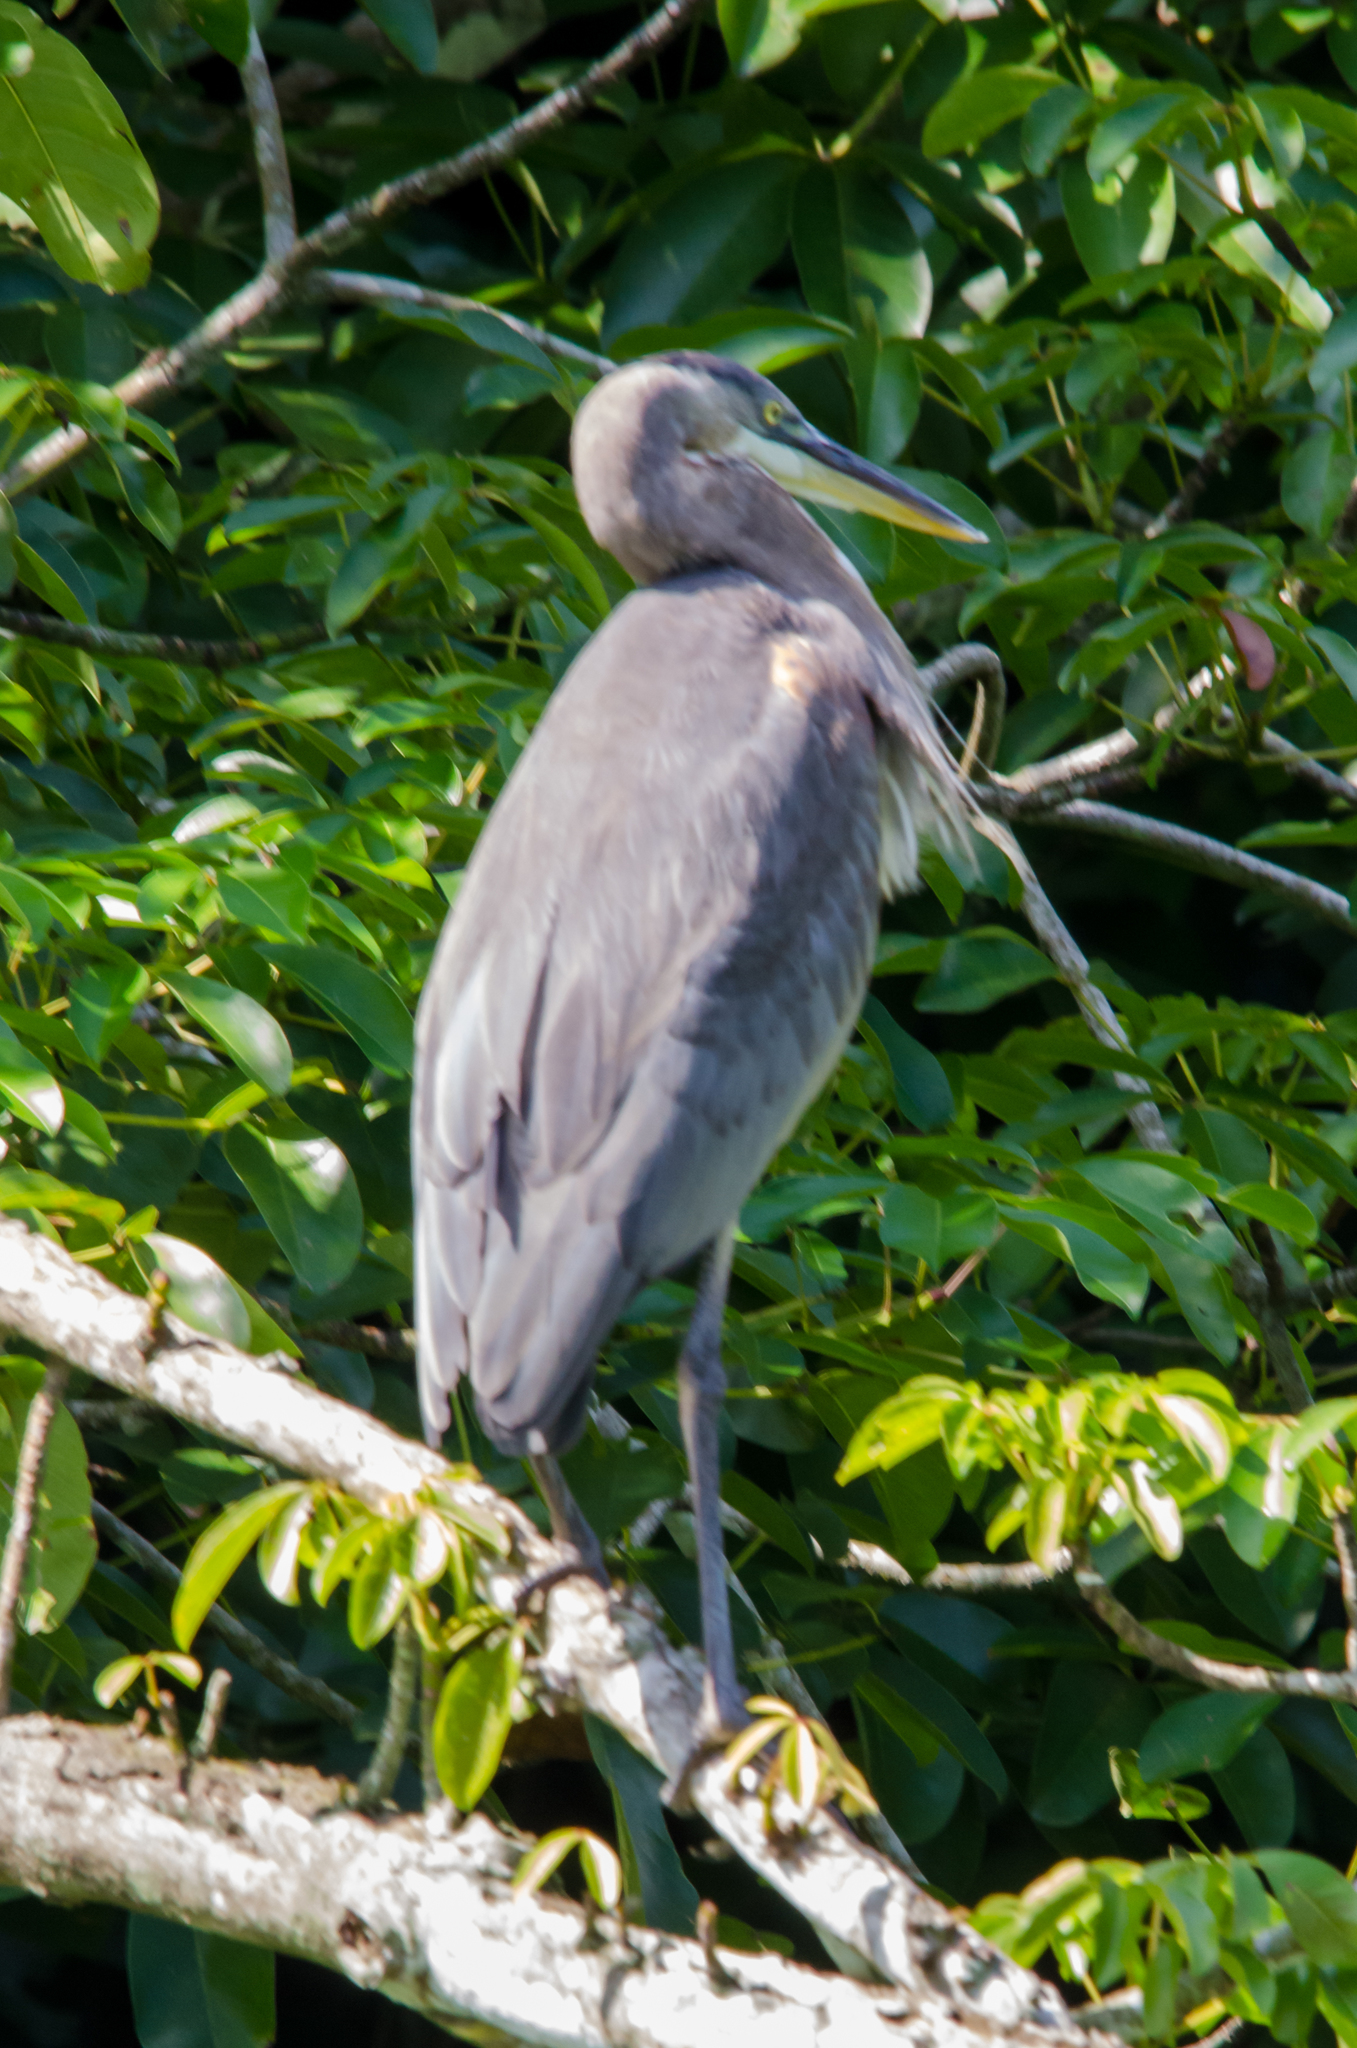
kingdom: Animalia
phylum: Chordata
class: Aves
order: Pelecaniformes
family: Ardeidae
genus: Ardea
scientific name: Ardea herodias
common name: Great blue heron
